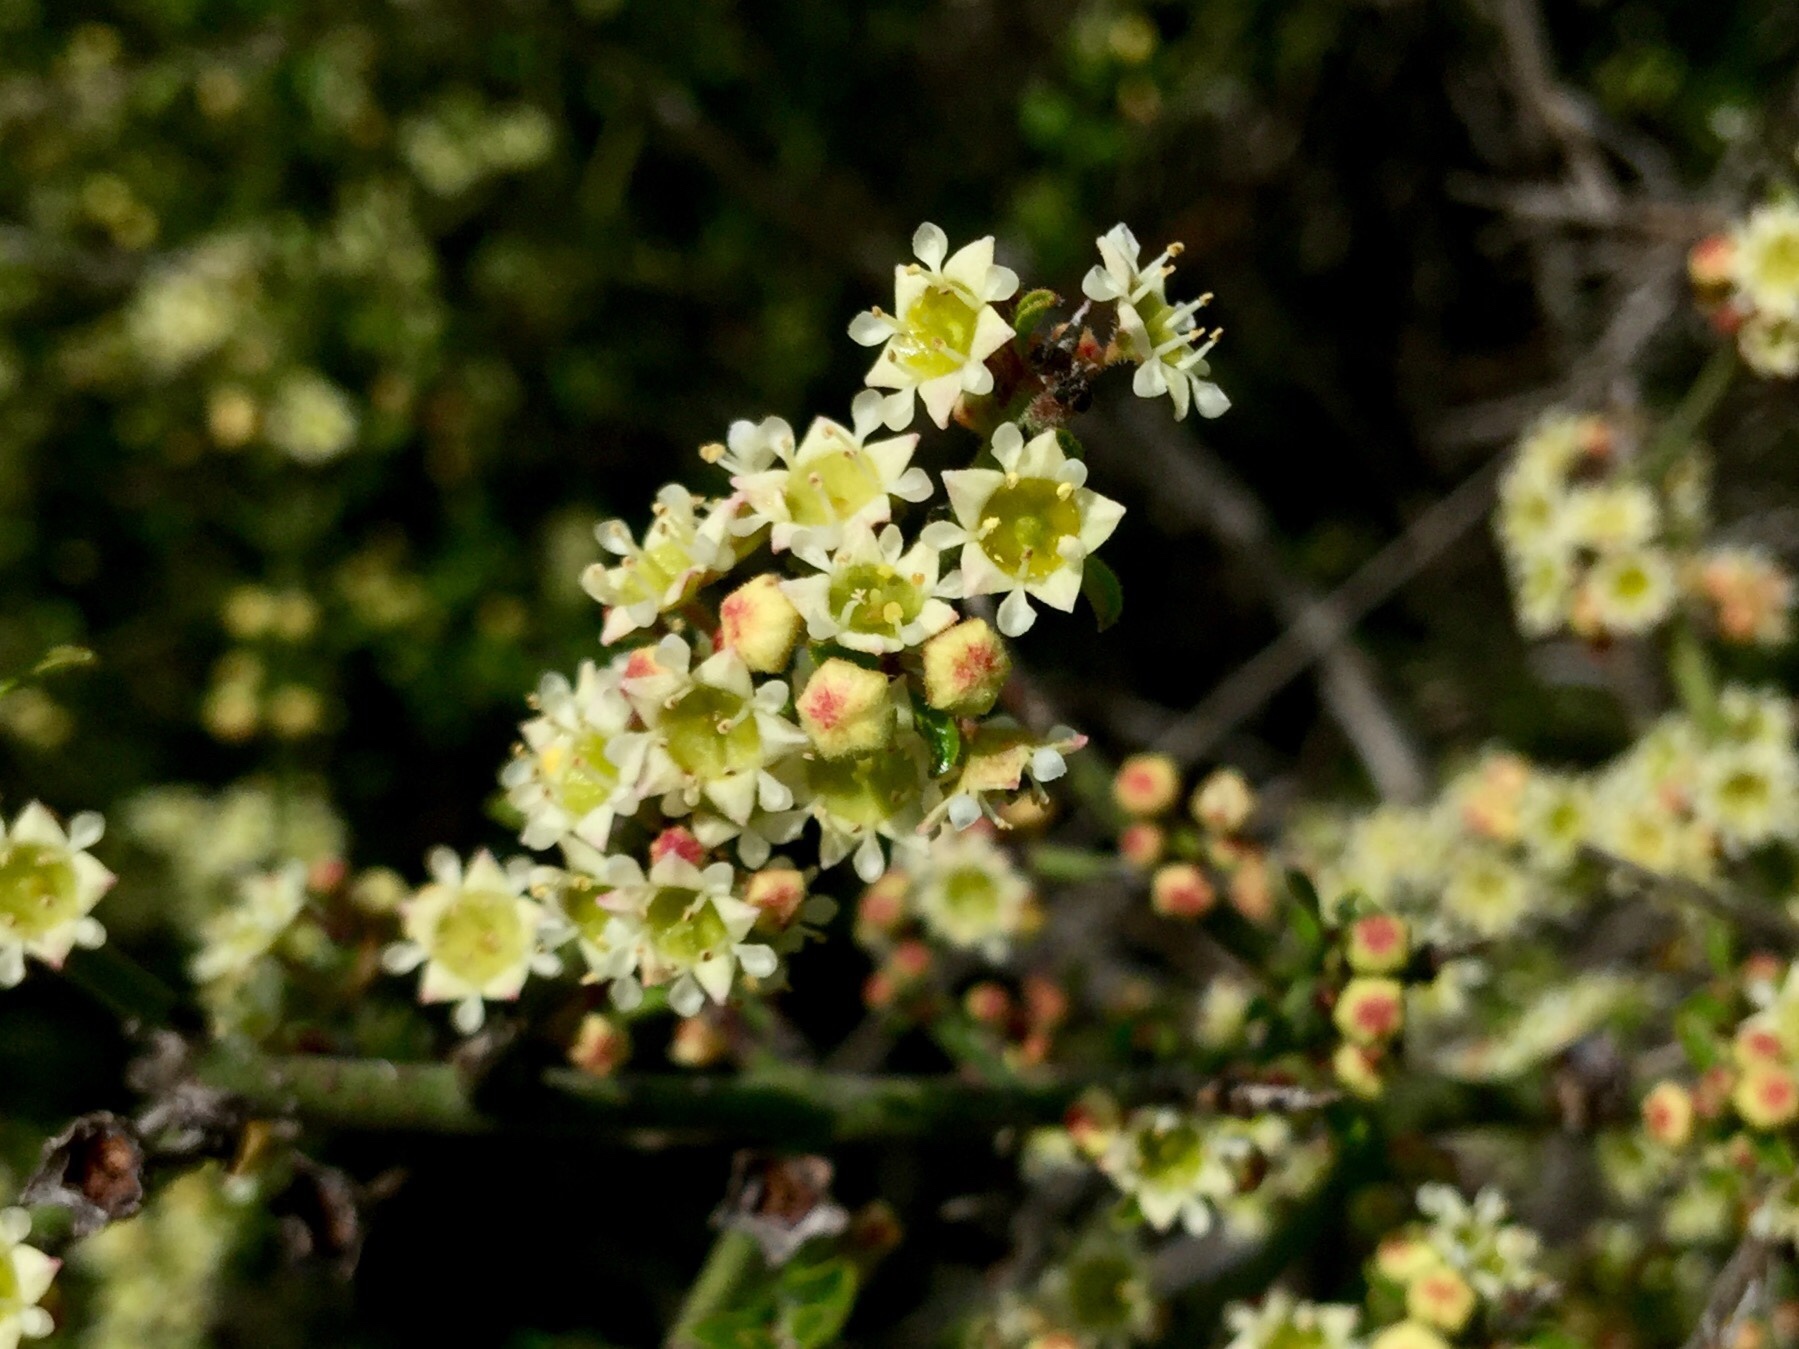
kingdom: Plantae
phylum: Tracheophyta
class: Magnoliopsida
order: Rosales
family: Rhamnaceae
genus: Adolphia
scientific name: Adolphia californica
